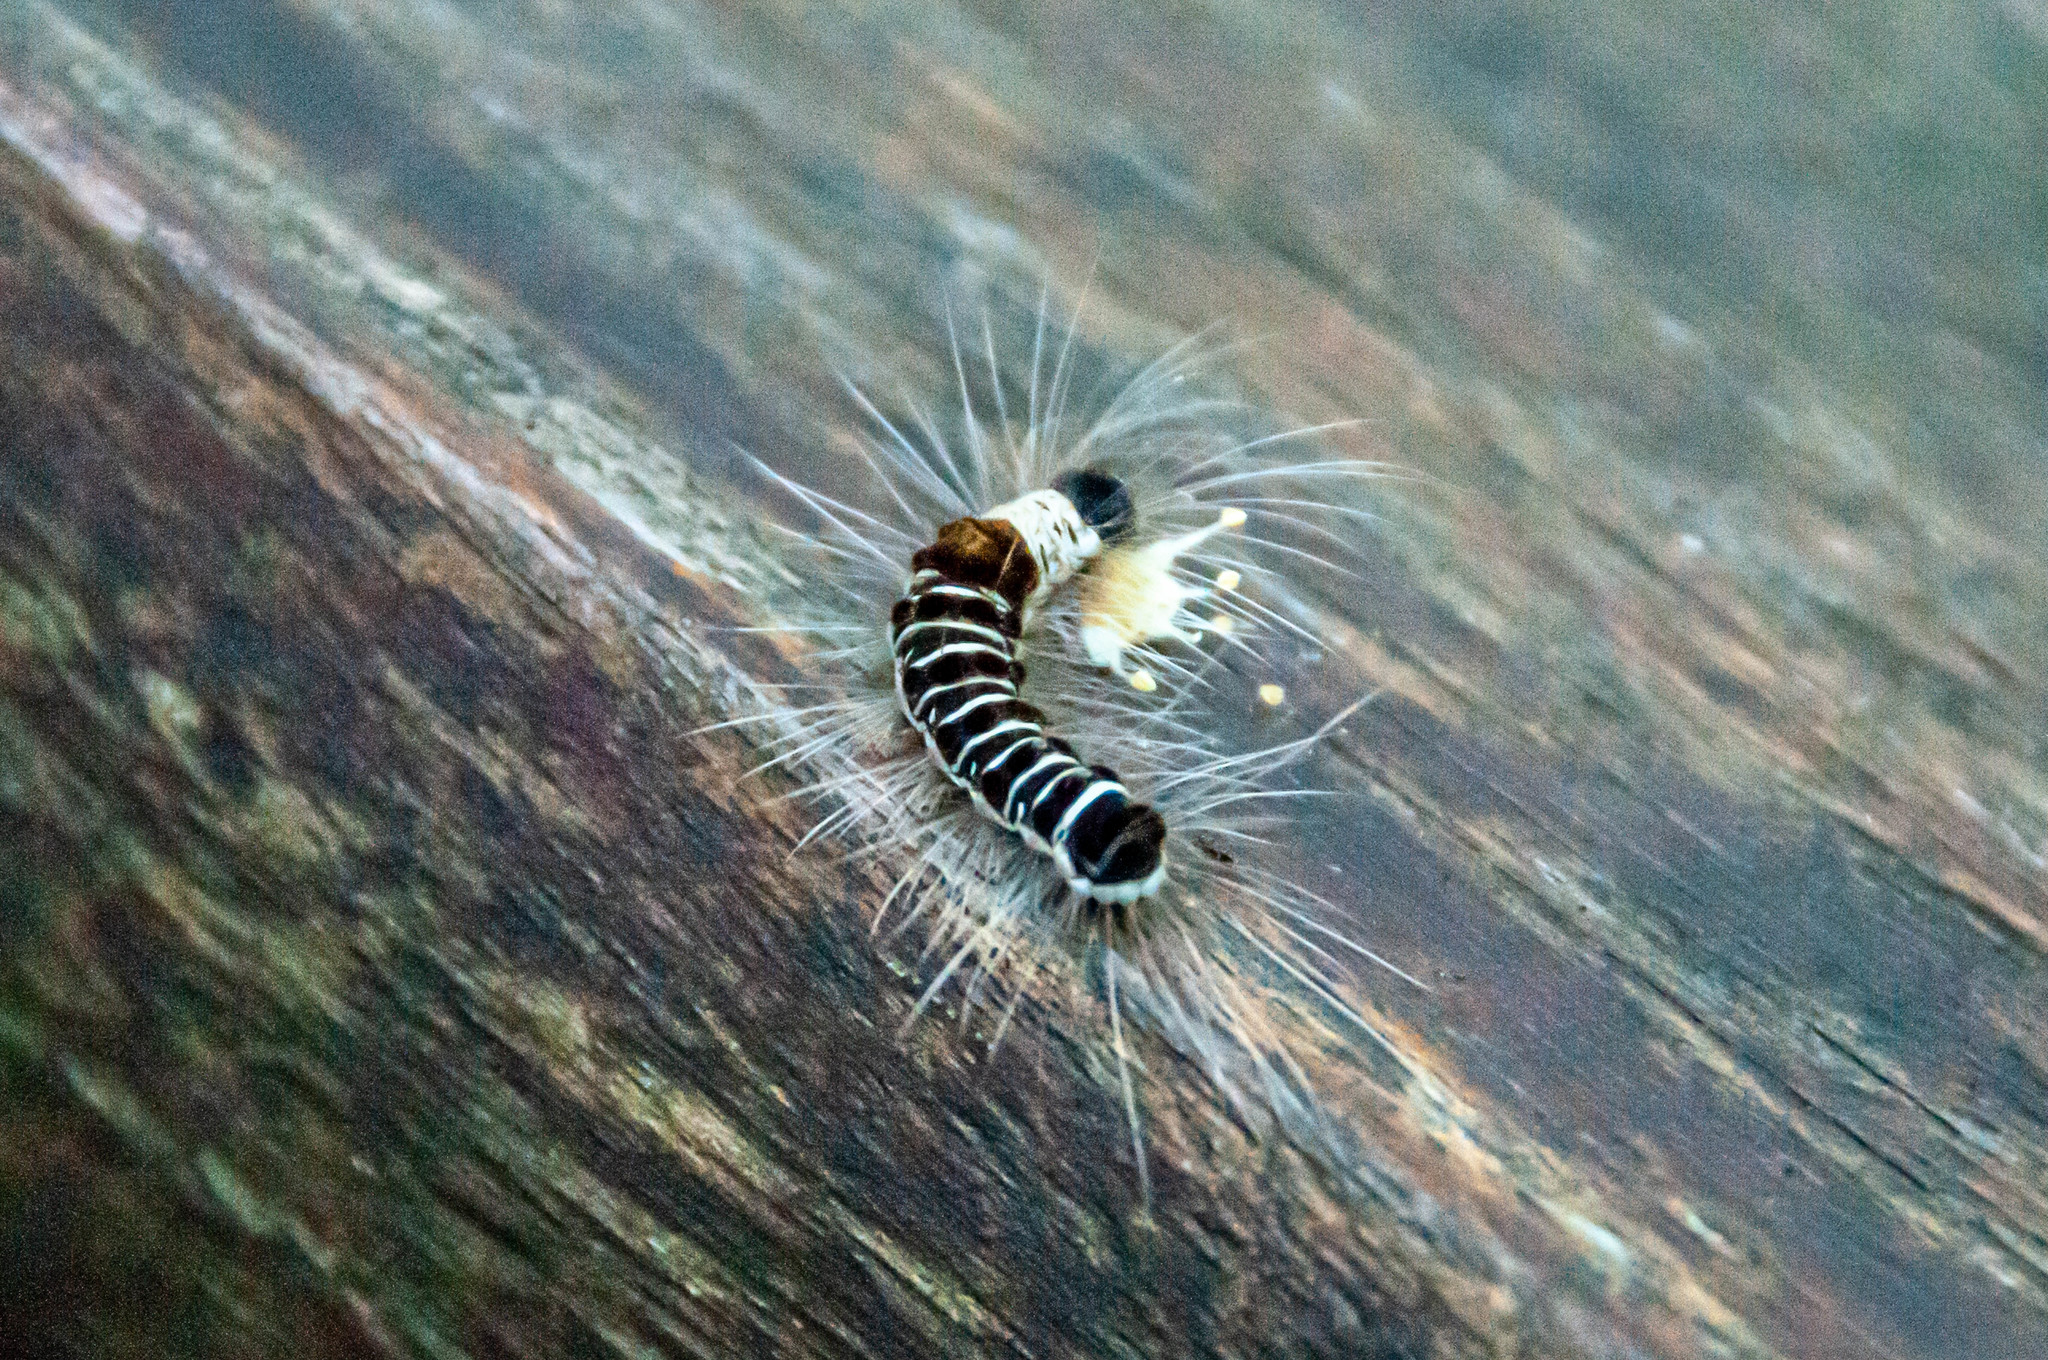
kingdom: Animalia
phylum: Arthropoda
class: Insecta
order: Lepidoptera
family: Erebidae
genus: Euproctis
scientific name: Euproctis kanshireia
